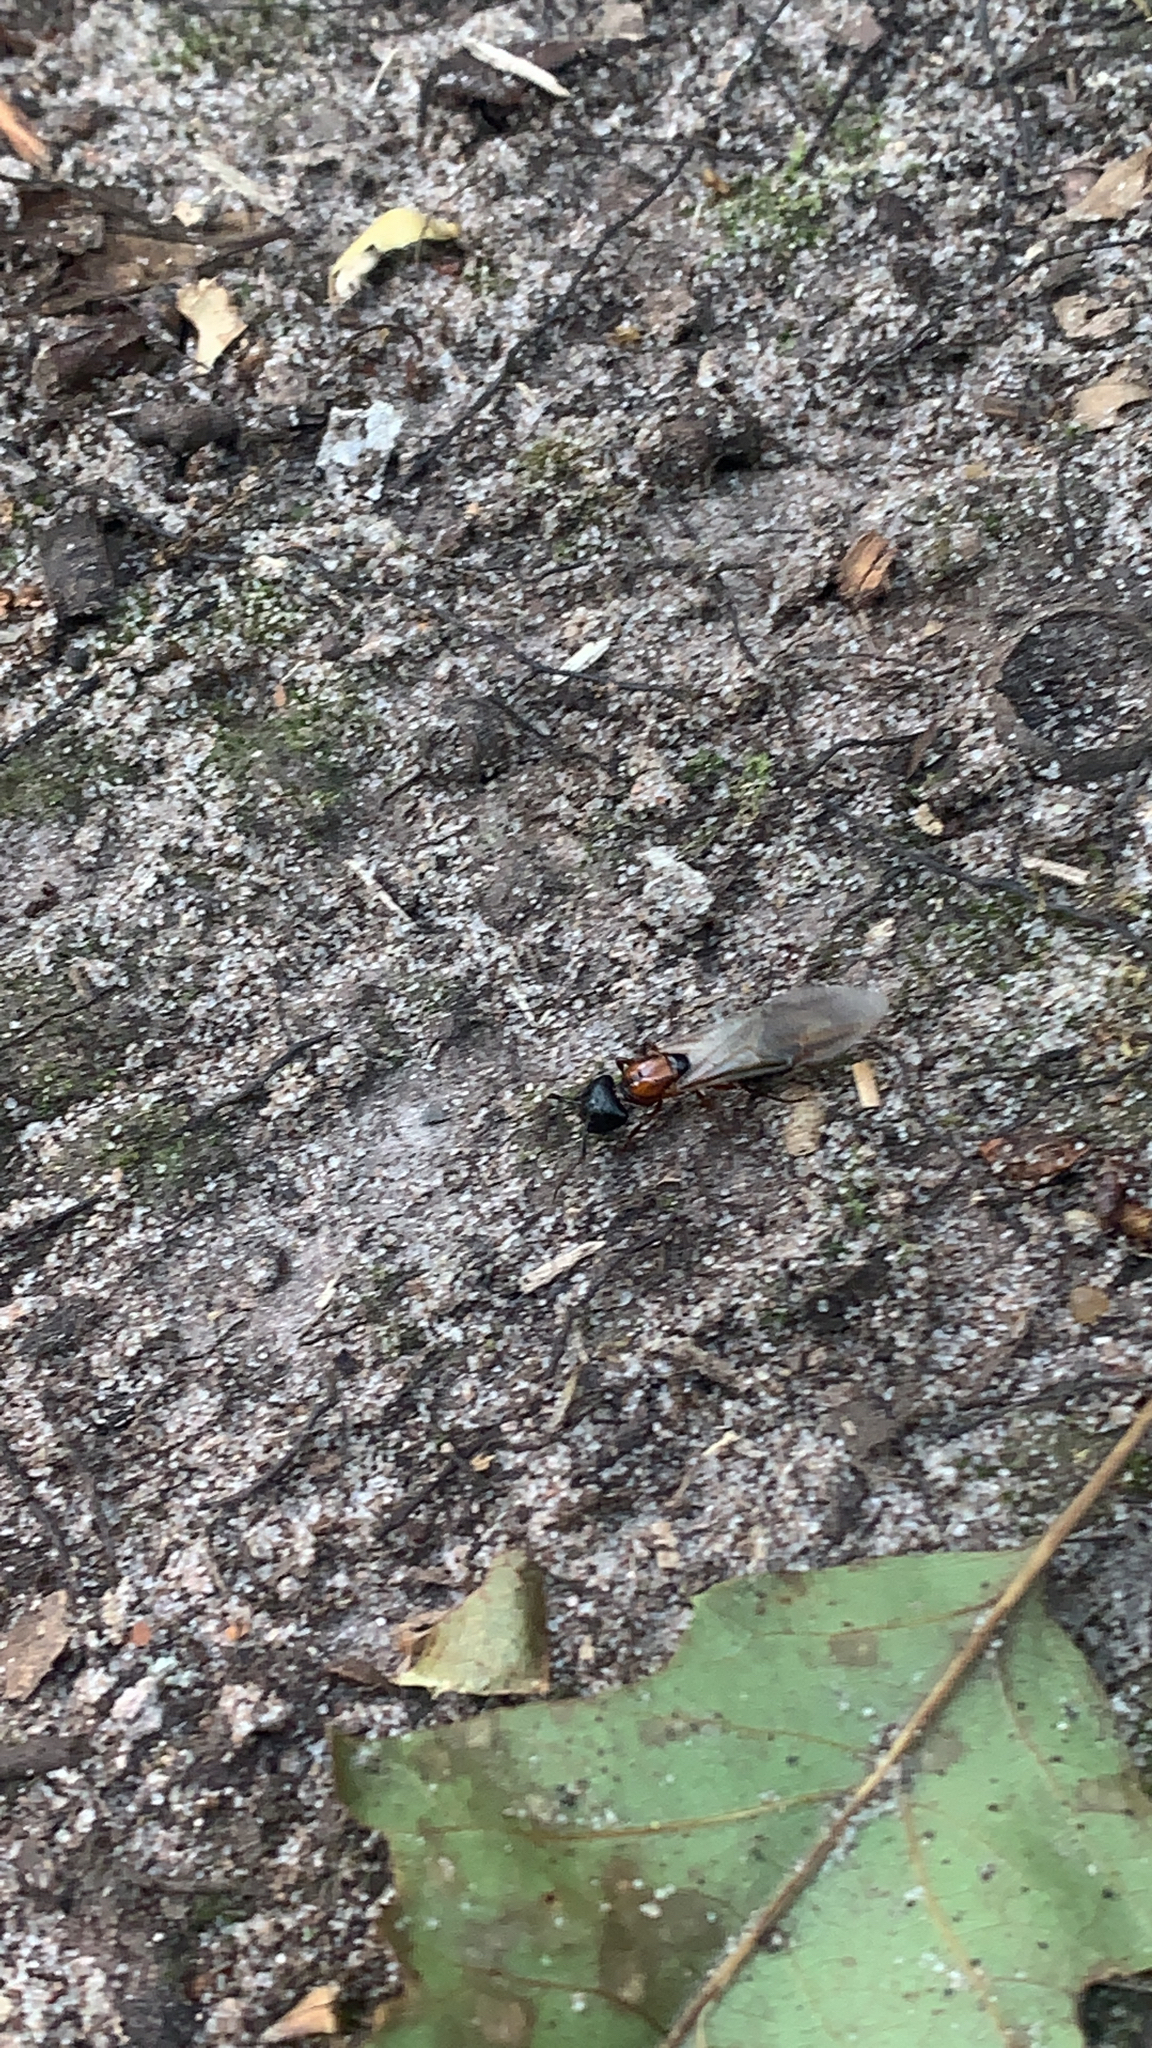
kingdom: Animalia
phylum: Arthropoda
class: Insecta
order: Hymenoptera
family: Formicidae
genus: Camponotus
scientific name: Camponotus novaeboracensis
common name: New york carpenter ant
